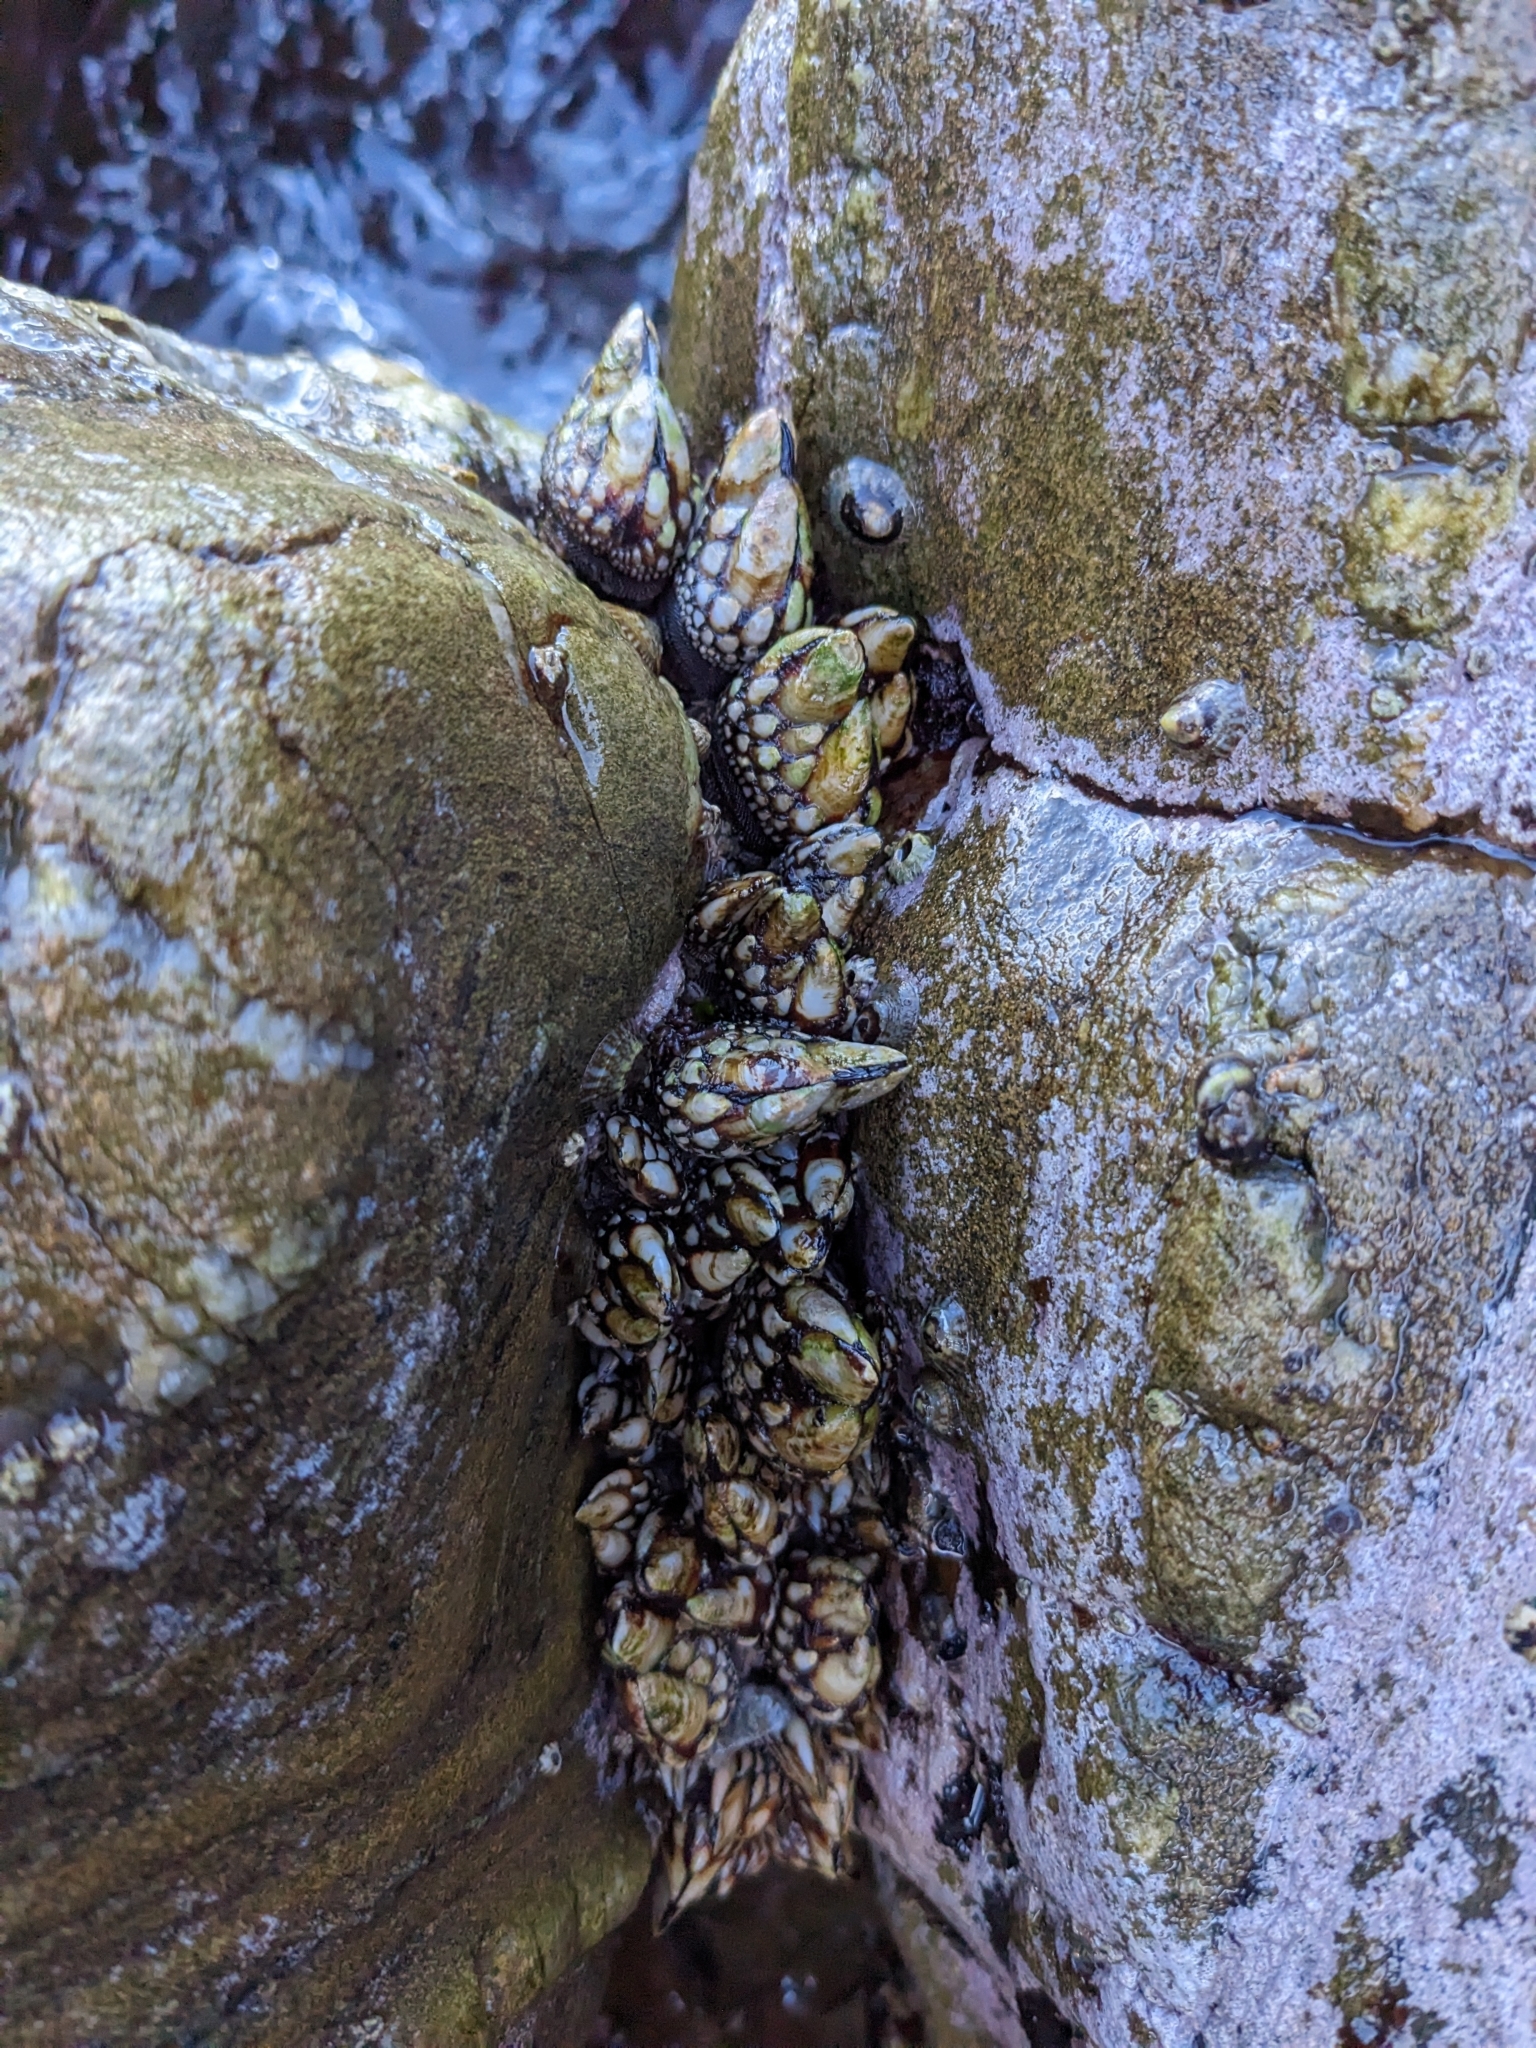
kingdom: Animalia
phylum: Arthropoda
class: Maxillopoda
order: Pedunculata
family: Pollicipedidae
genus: Pollicipes
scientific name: Pollicipes polymerus
